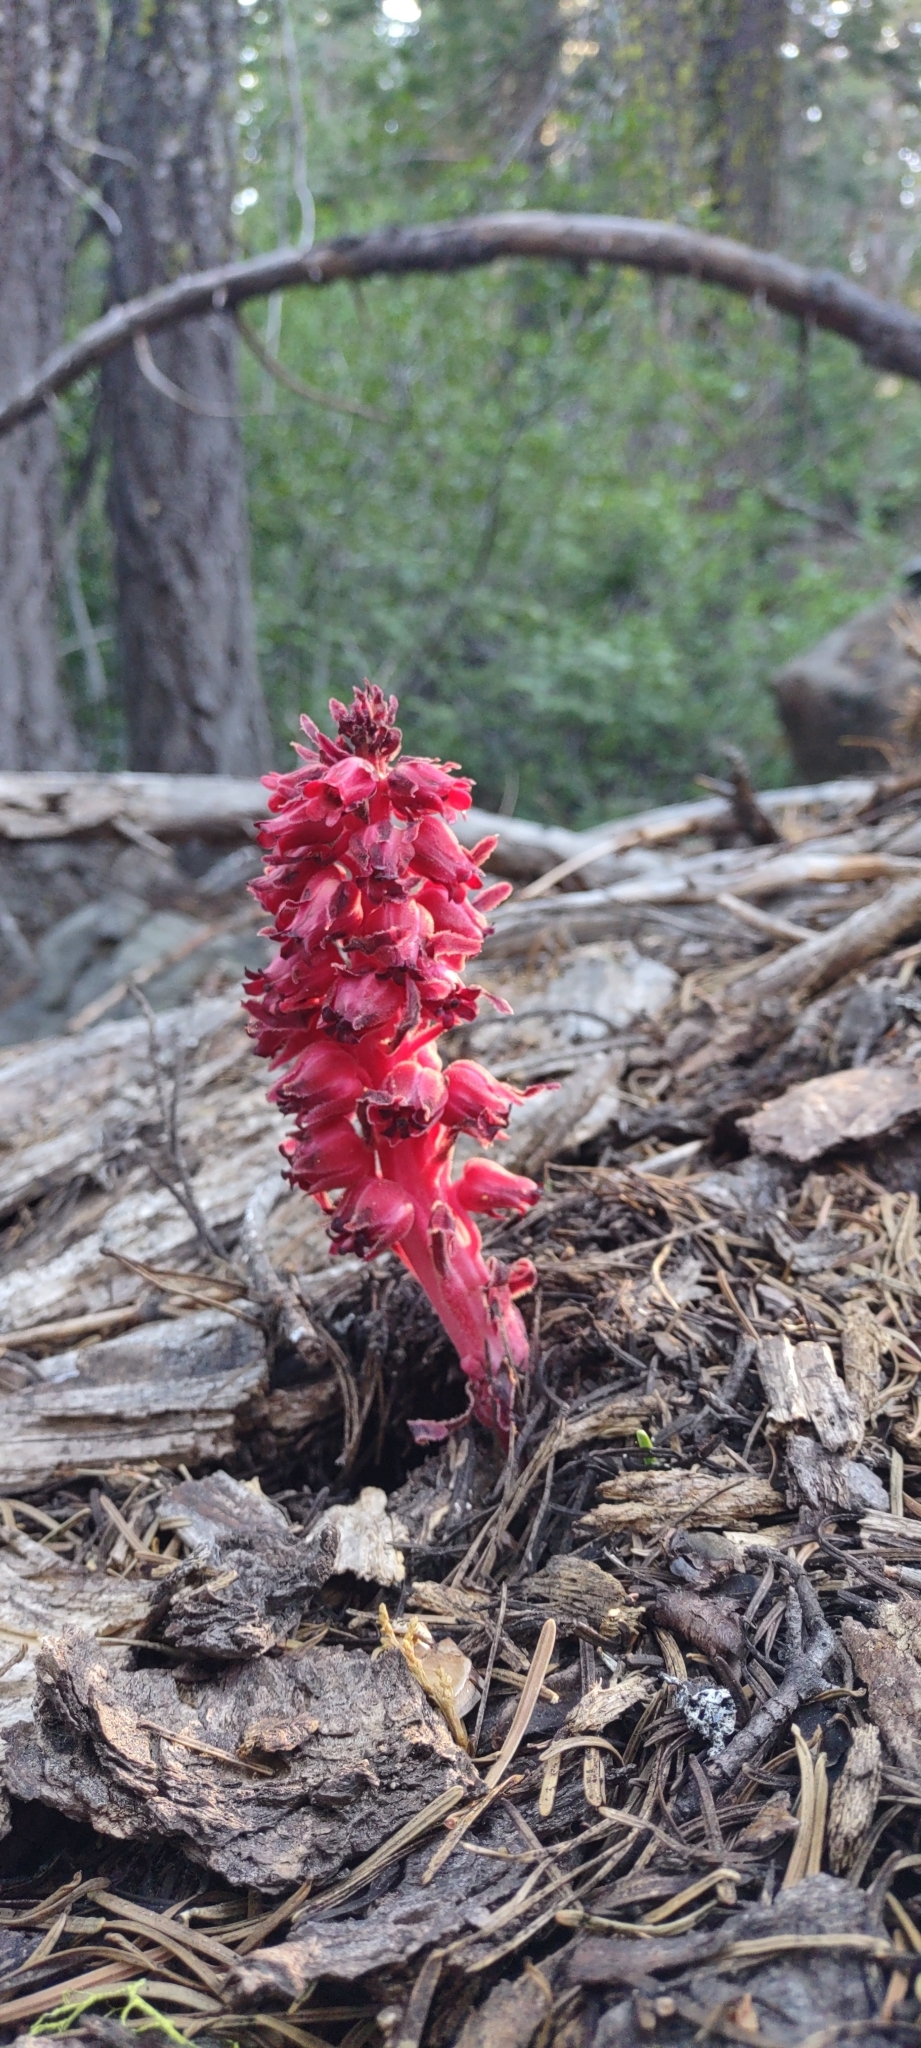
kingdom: Plantae
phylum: Tracheophyta
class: Magnoliopsida
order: Ericales
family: Ericaceae
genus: Sarcodes
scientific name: Sarcodes sanguinea
